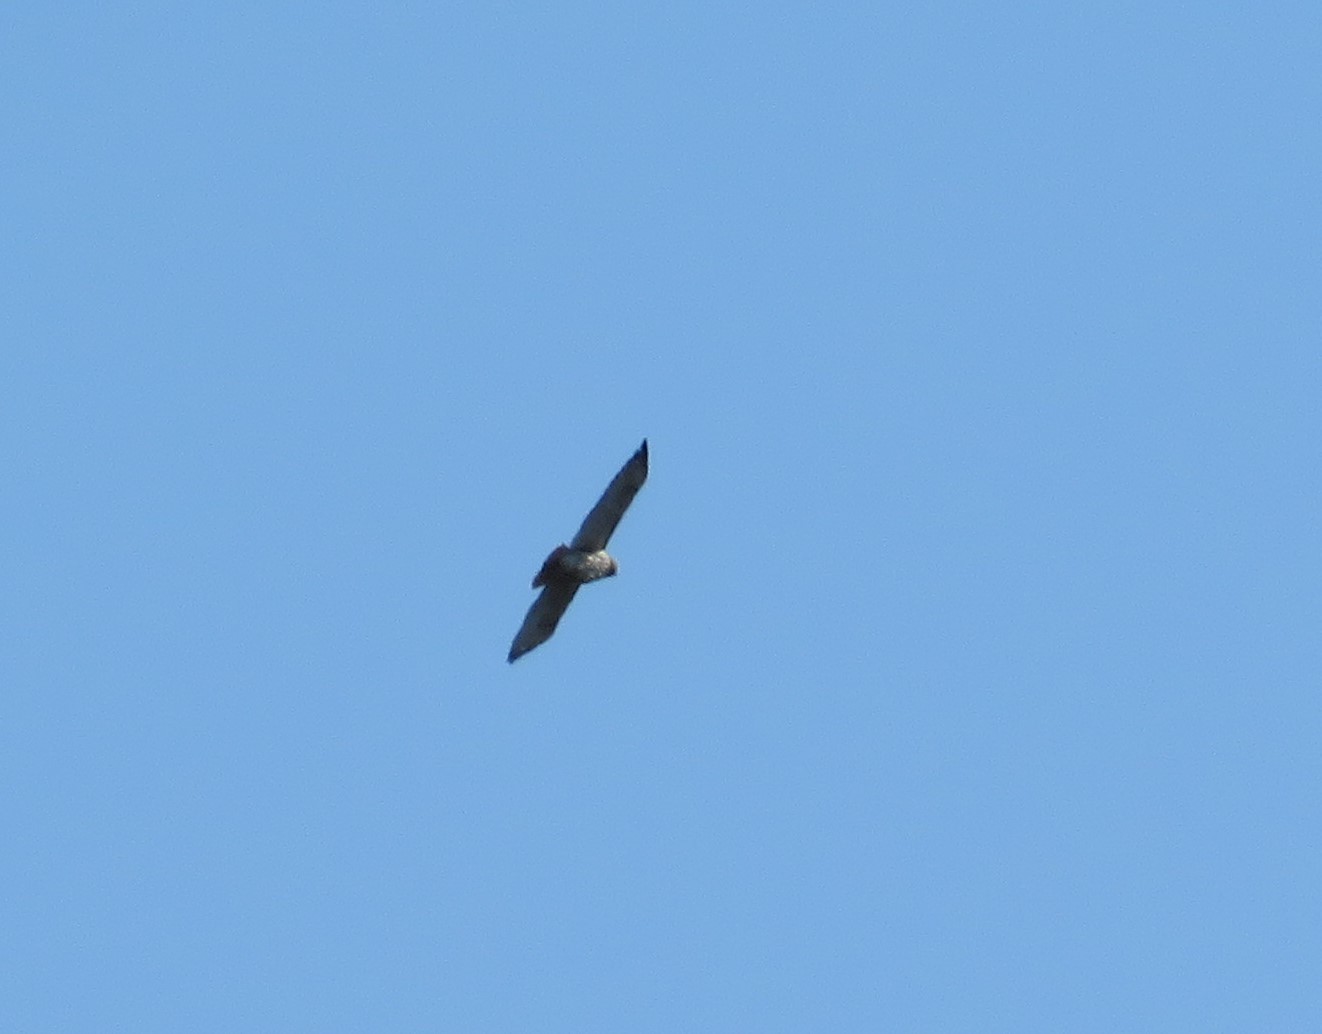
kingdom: Animalia
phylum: Chordata
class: Aves
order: Accipitriformes
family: Accipitridae
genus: Buteo
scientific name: Buteo jamaicensis
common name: Red-tailed hawk
